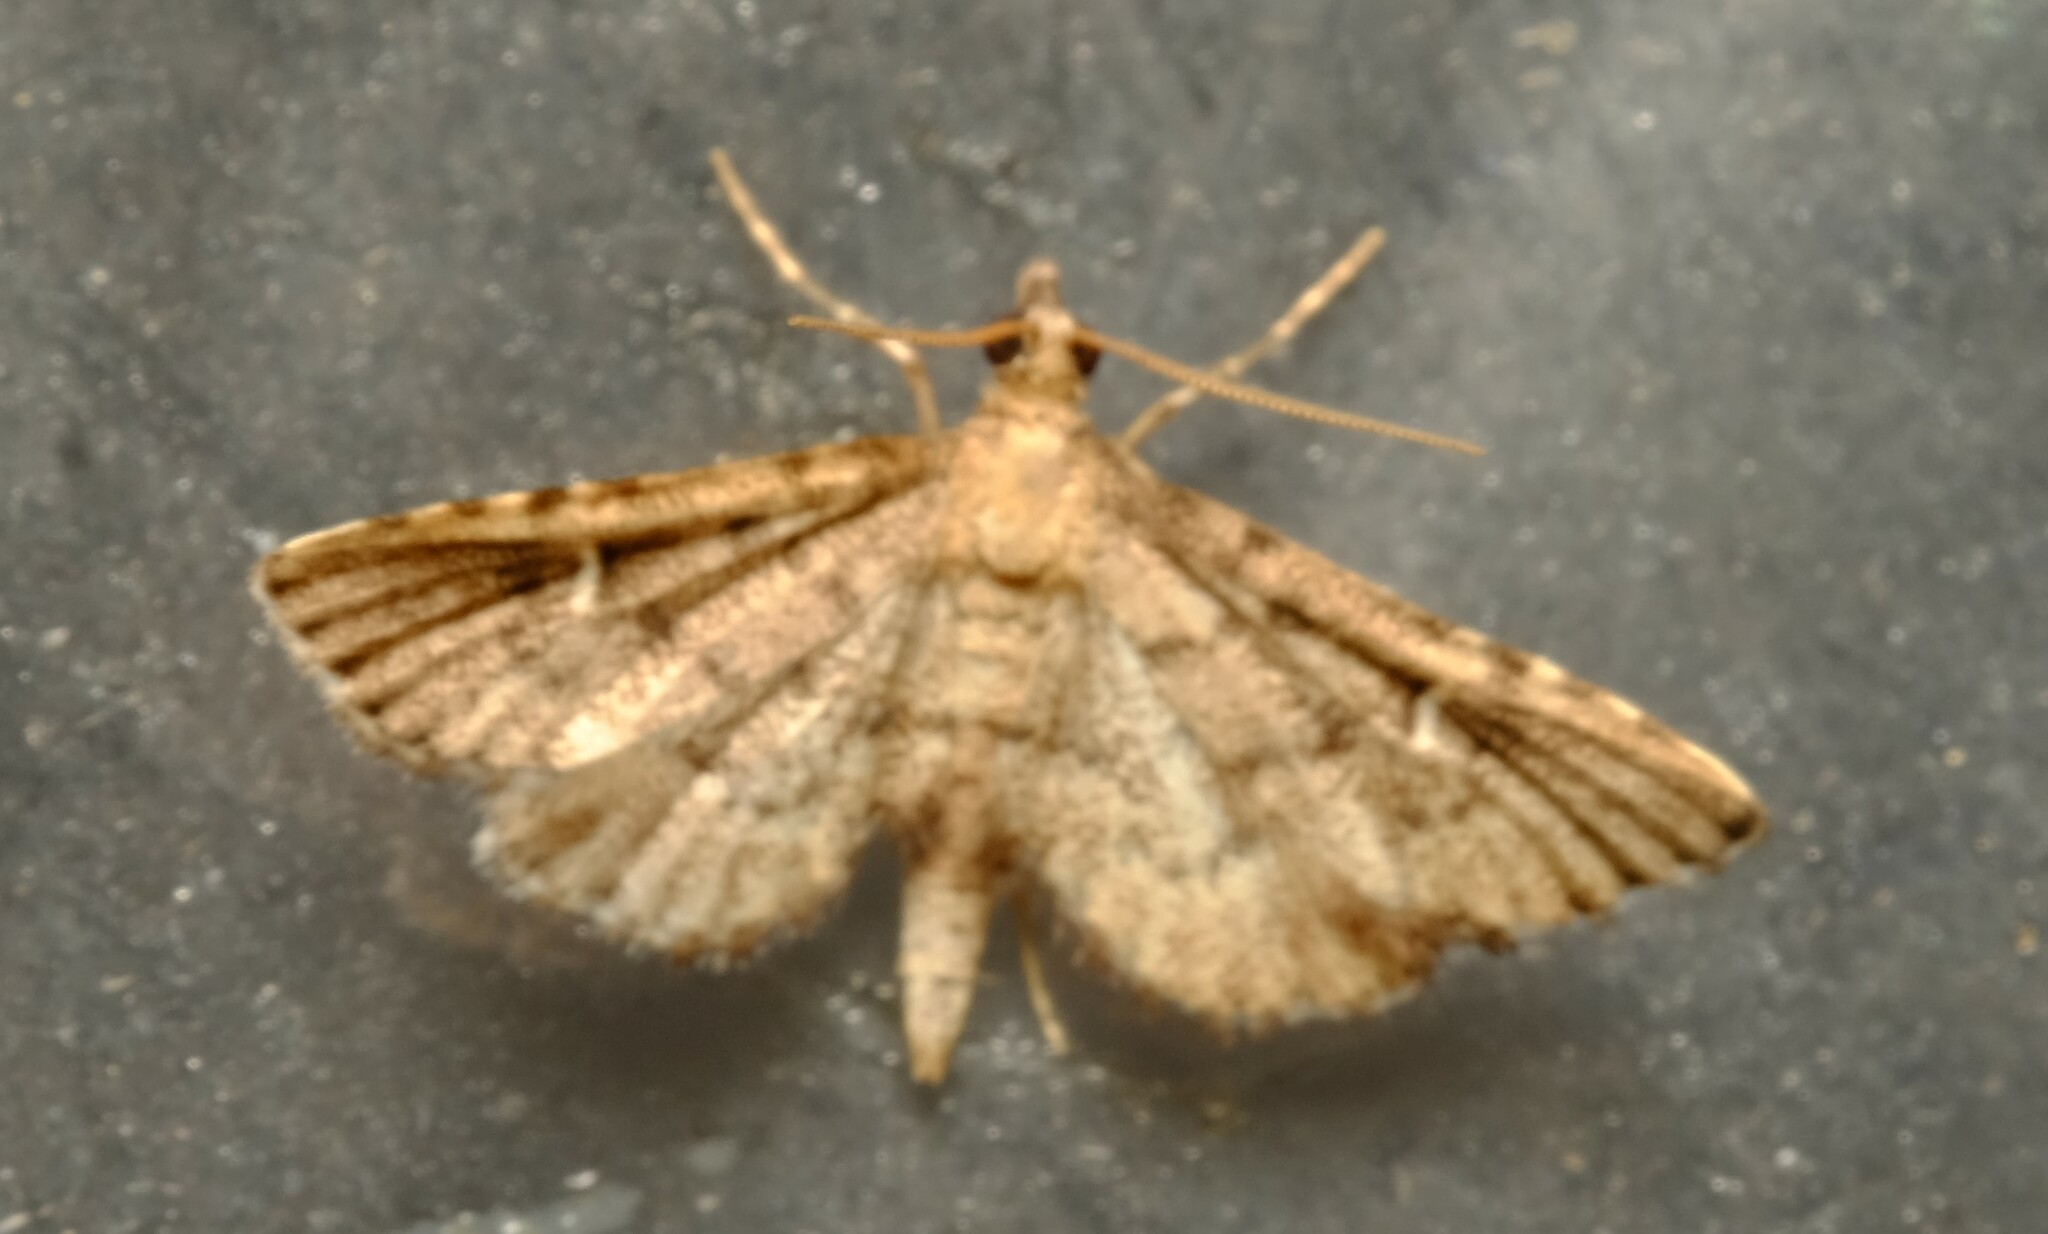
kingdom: Animalia
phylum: Arthropoda
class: Insecta
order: Lepidoptera
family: Crambidae
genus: Metasia
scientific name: Metasia capnochroa
